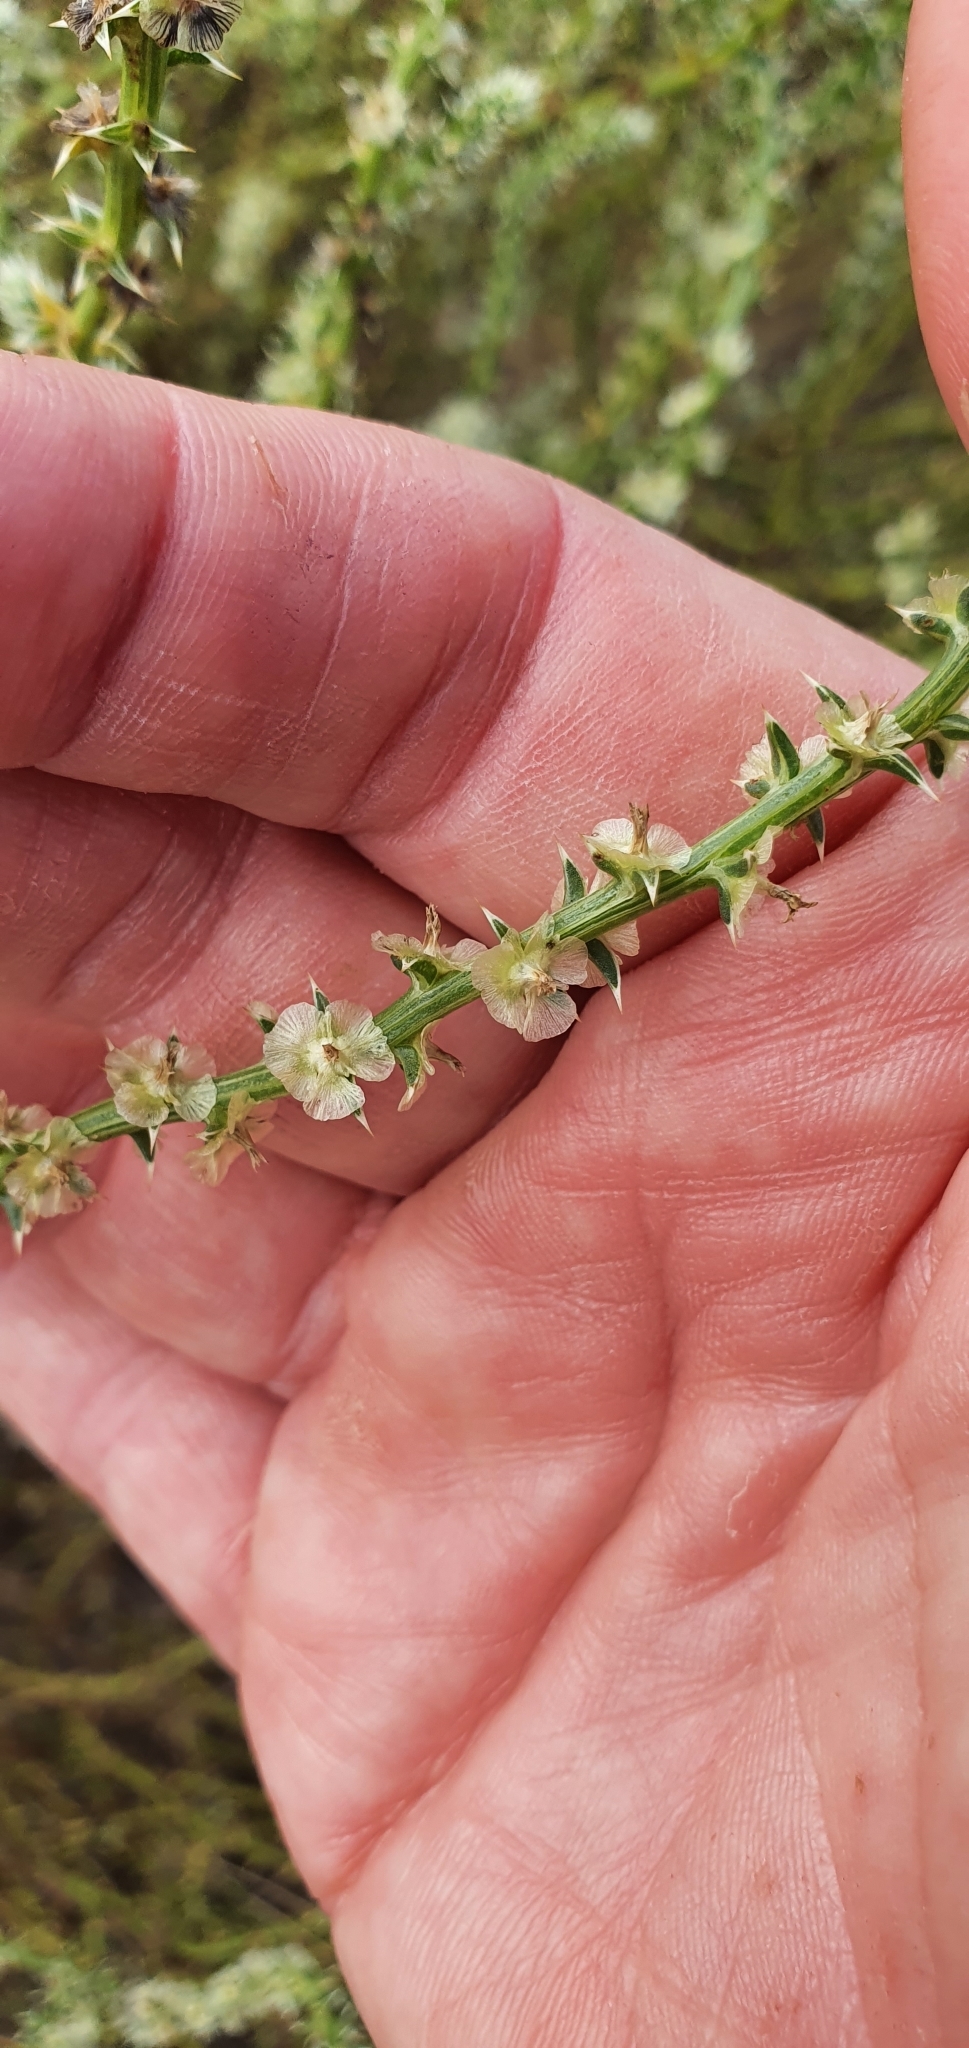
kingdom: Plantae
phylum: Tracheophyta
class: Magnoliopsida
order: Caryophyllales
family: Amaranthaceae
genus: Salsola
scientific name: Salsola australis
